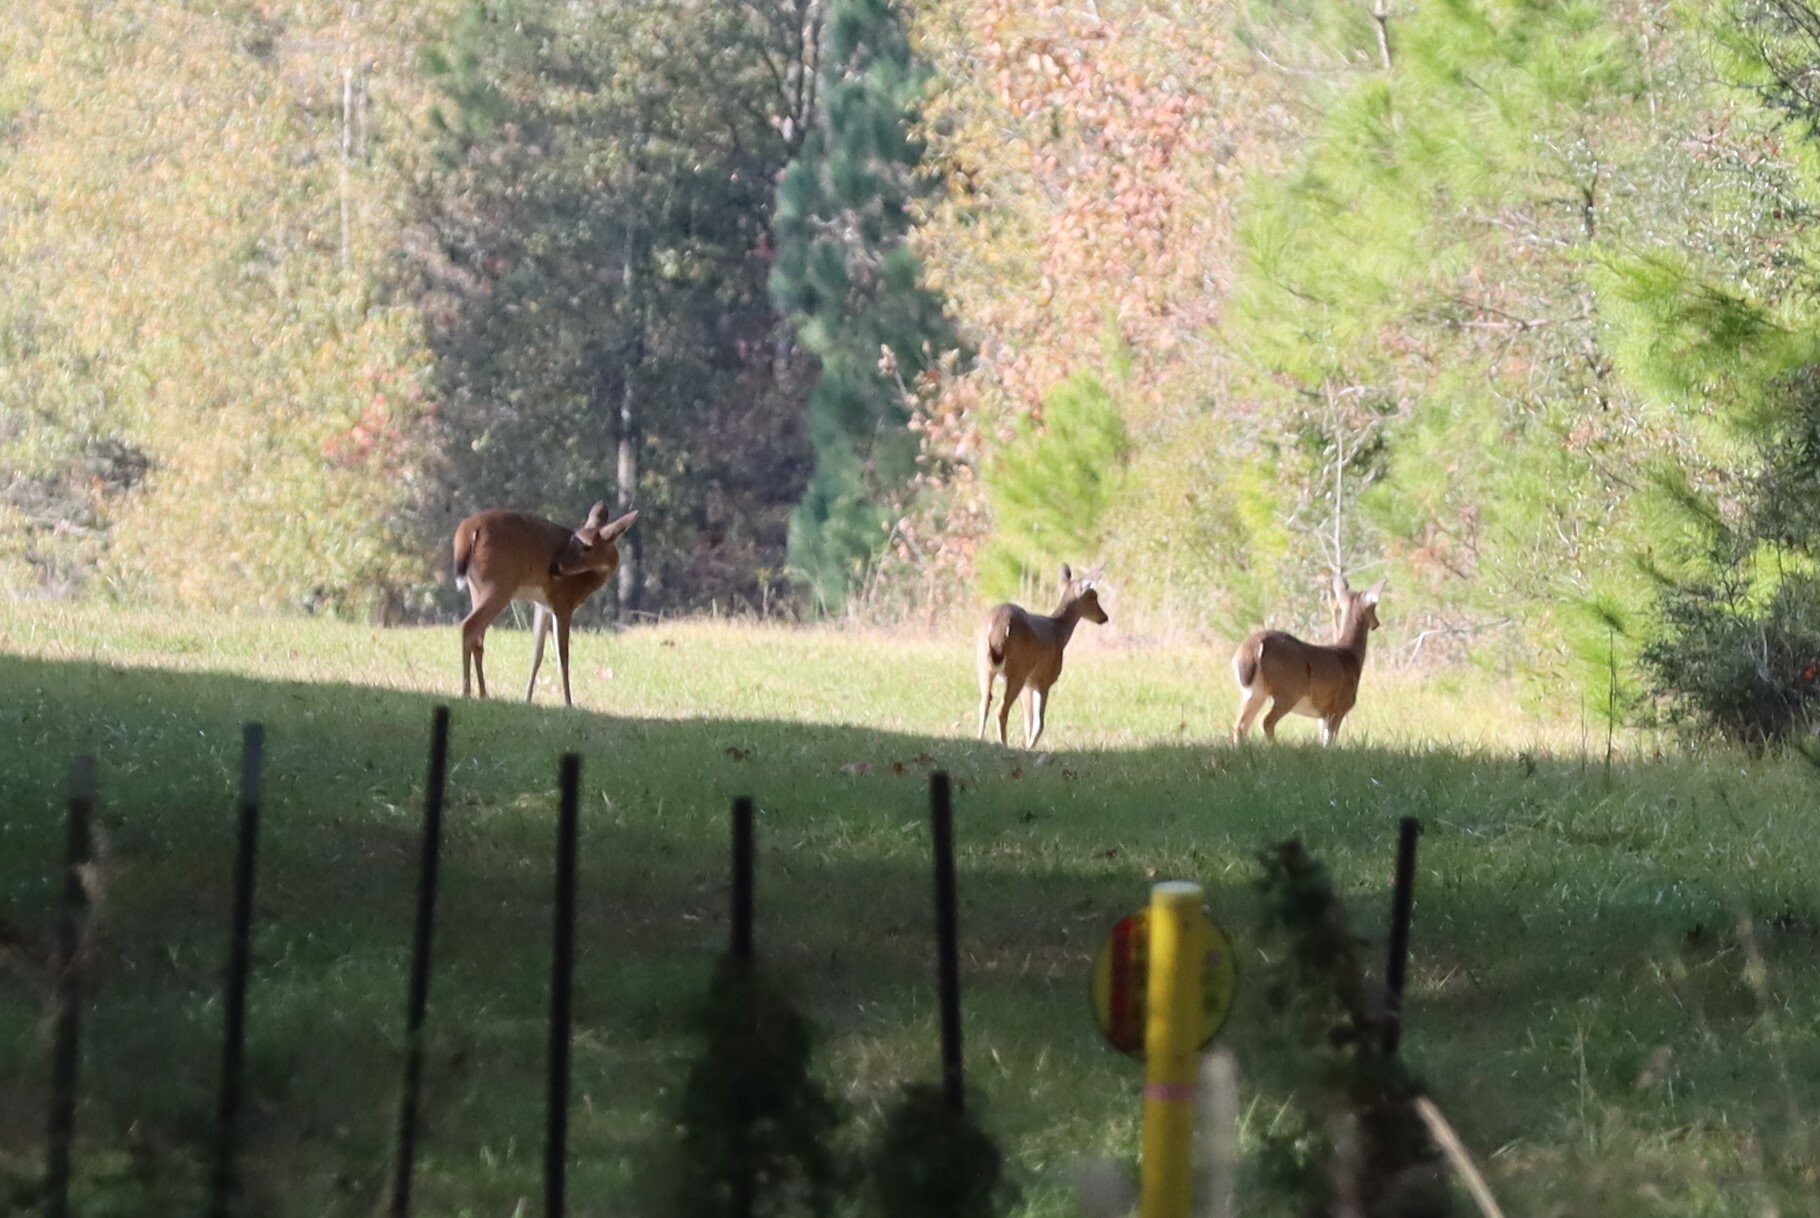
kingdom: Animalia
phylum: Chordata
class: Mammalia
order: Artiodactyla
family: Cervidae
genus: Odocoileus
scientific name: Odocoileus virginianus
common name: White-tailed deer
